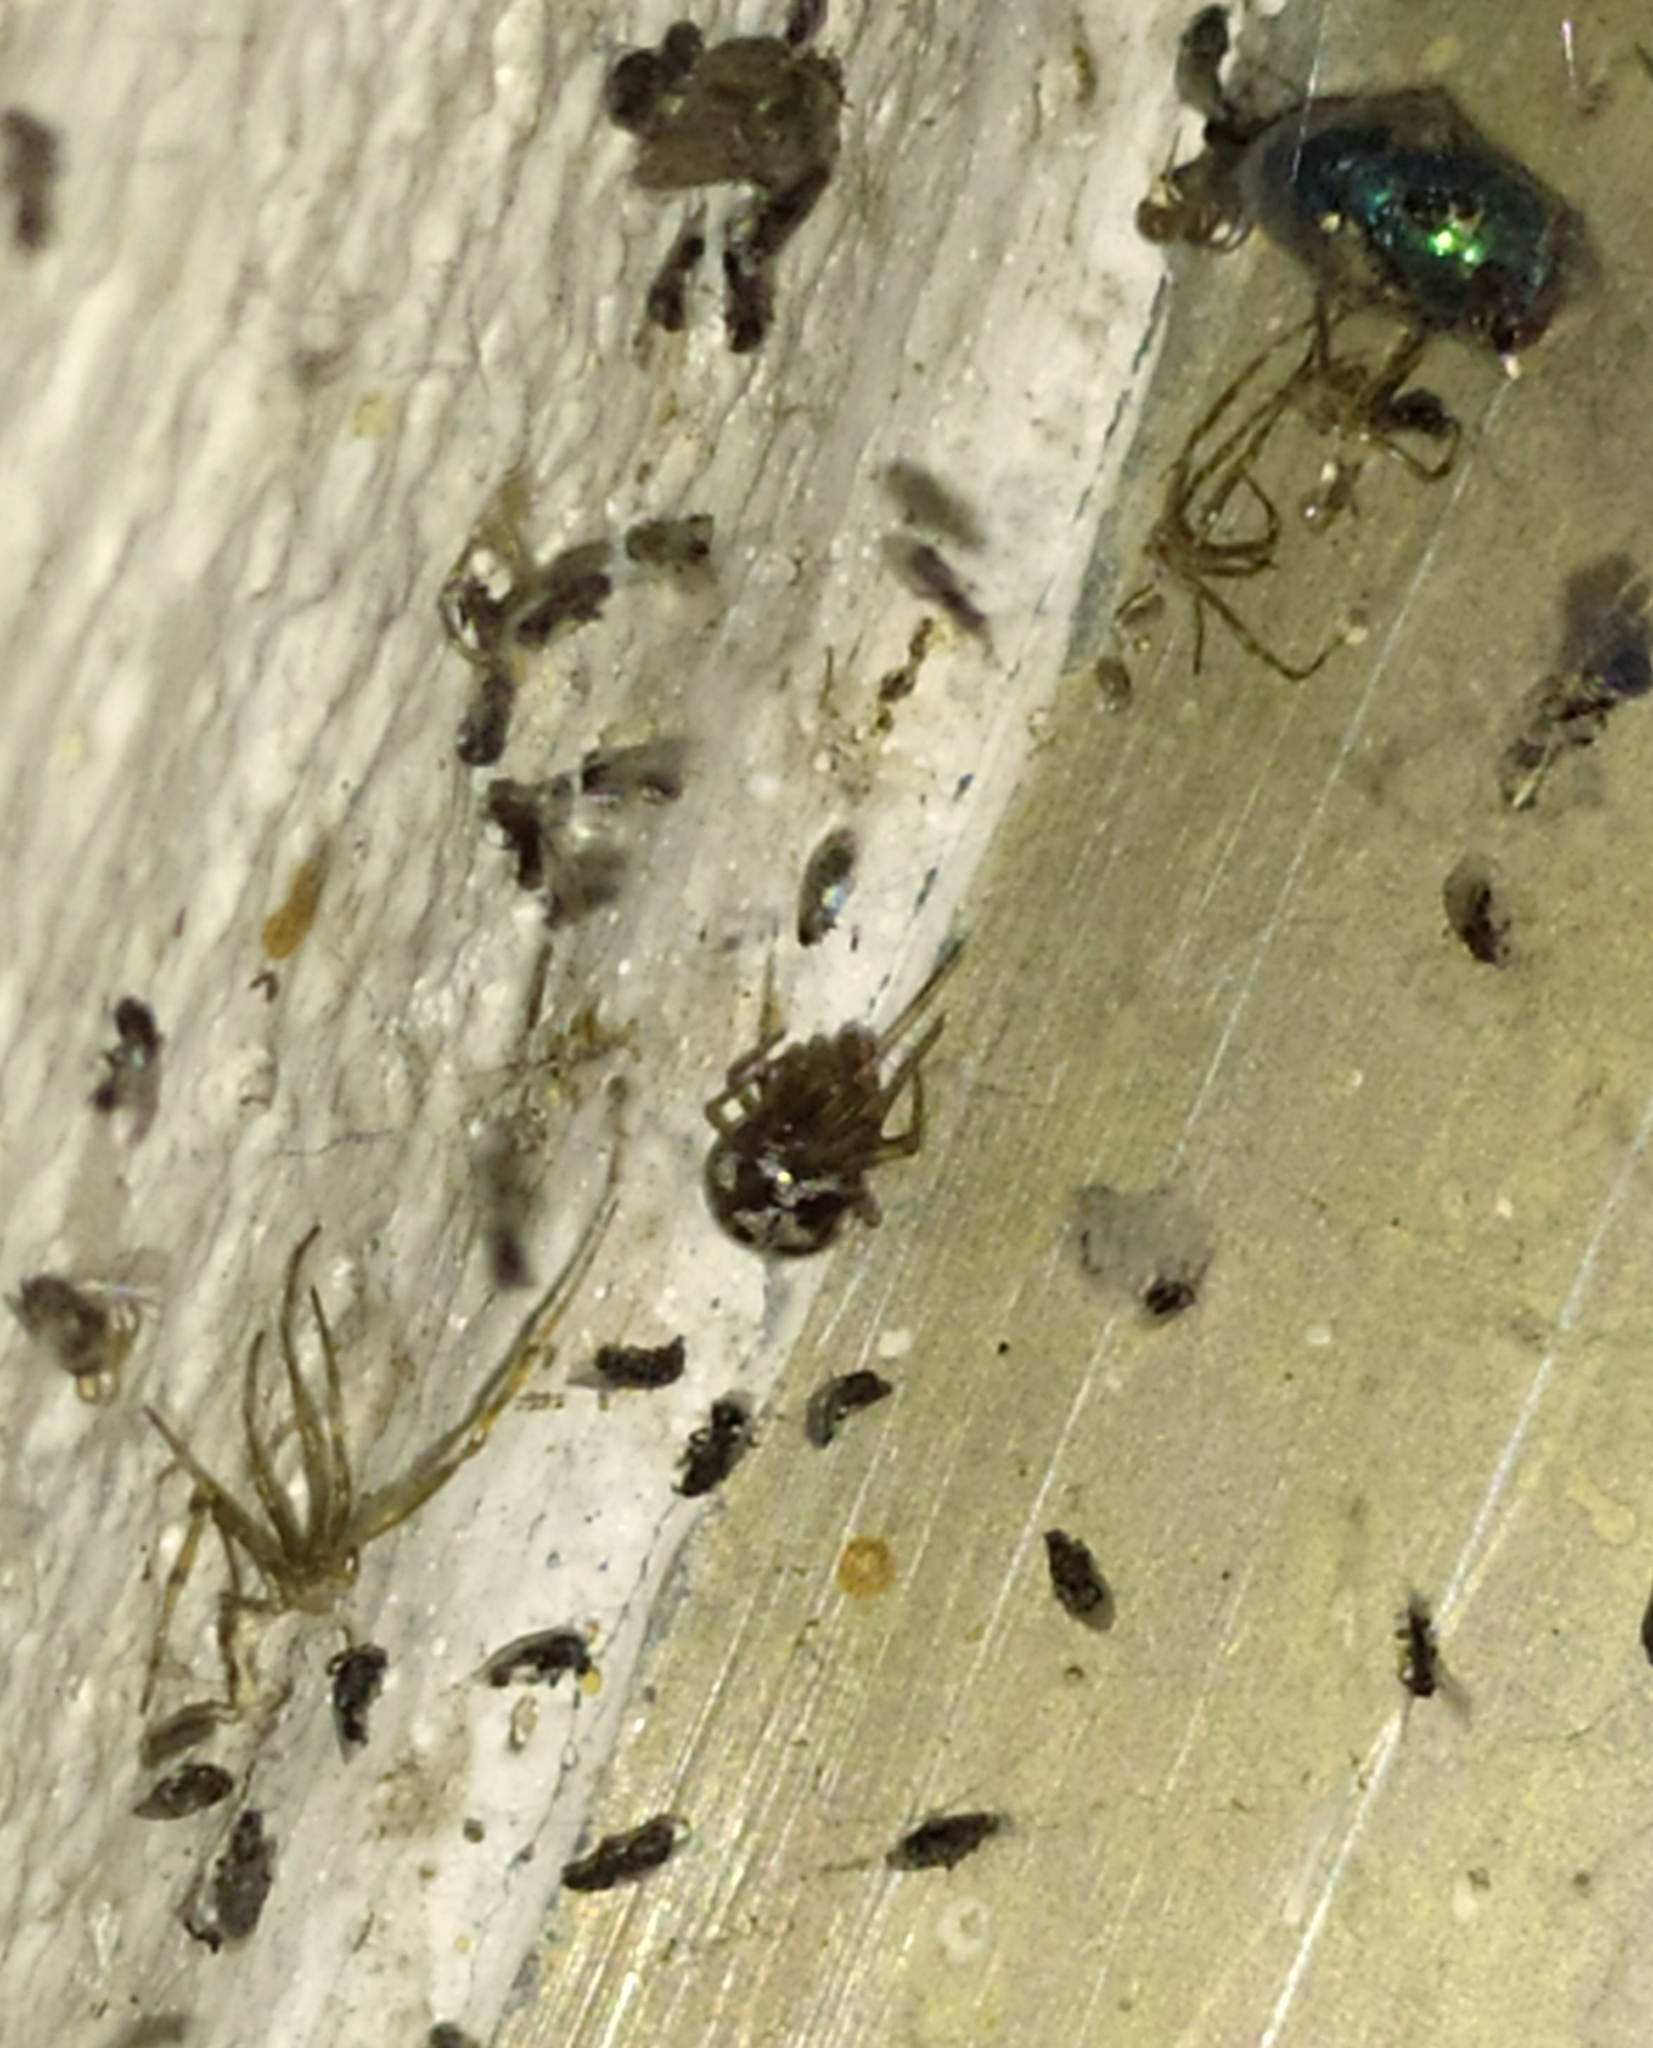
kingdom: Animalia
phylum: Arthropoda
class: Arachnida
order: Araneae
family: Theridiidae
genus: Steatoda
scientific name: Steatoda triangulosa
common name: Triangulate bud spider
